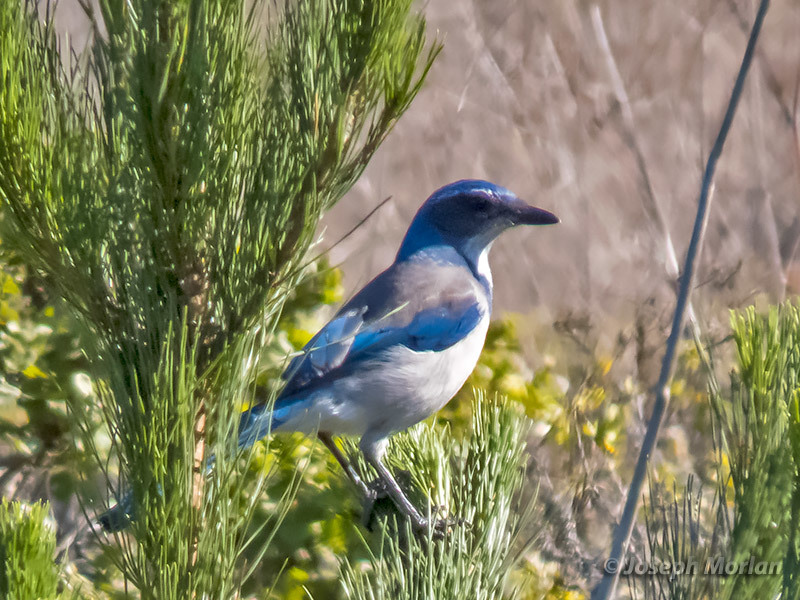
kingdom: Animalia
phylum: Chordata
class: Aves
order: Passeriformes
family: Corvidae
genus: Aphelocoma
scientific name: Aphelocoma californica
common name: California scrub-jay
